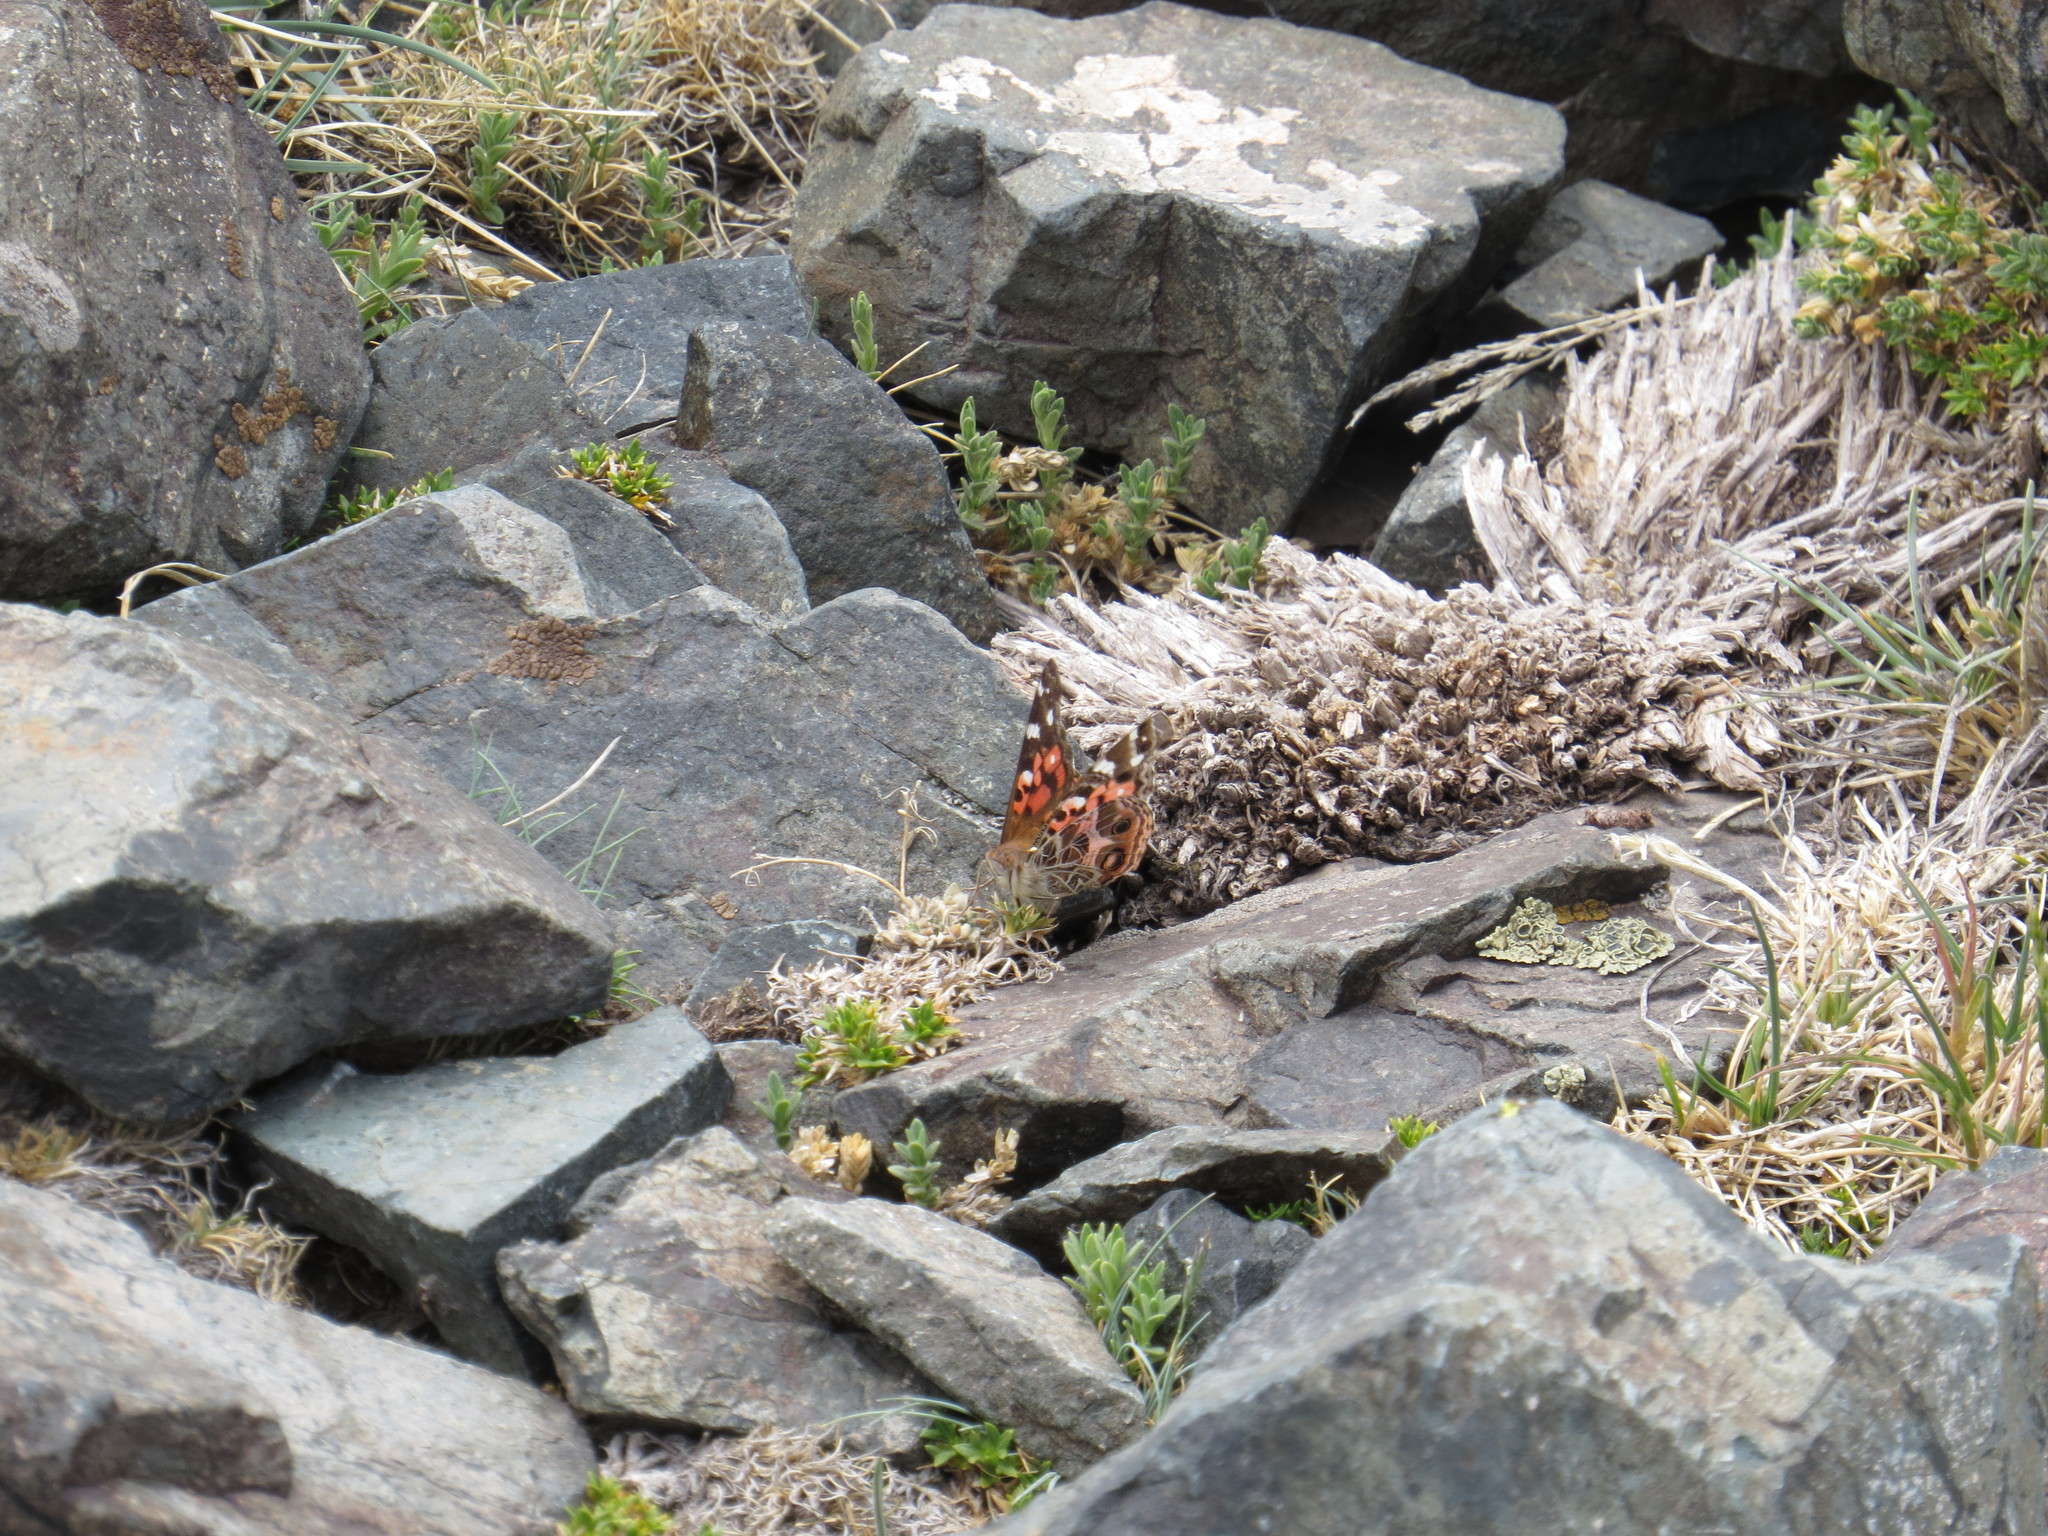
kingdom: Animalia
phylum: Arthropoda
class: Insecta
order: Lepidoptera
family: Nymphalidae
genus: Vanessa
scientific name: Vanessa braziliensis
